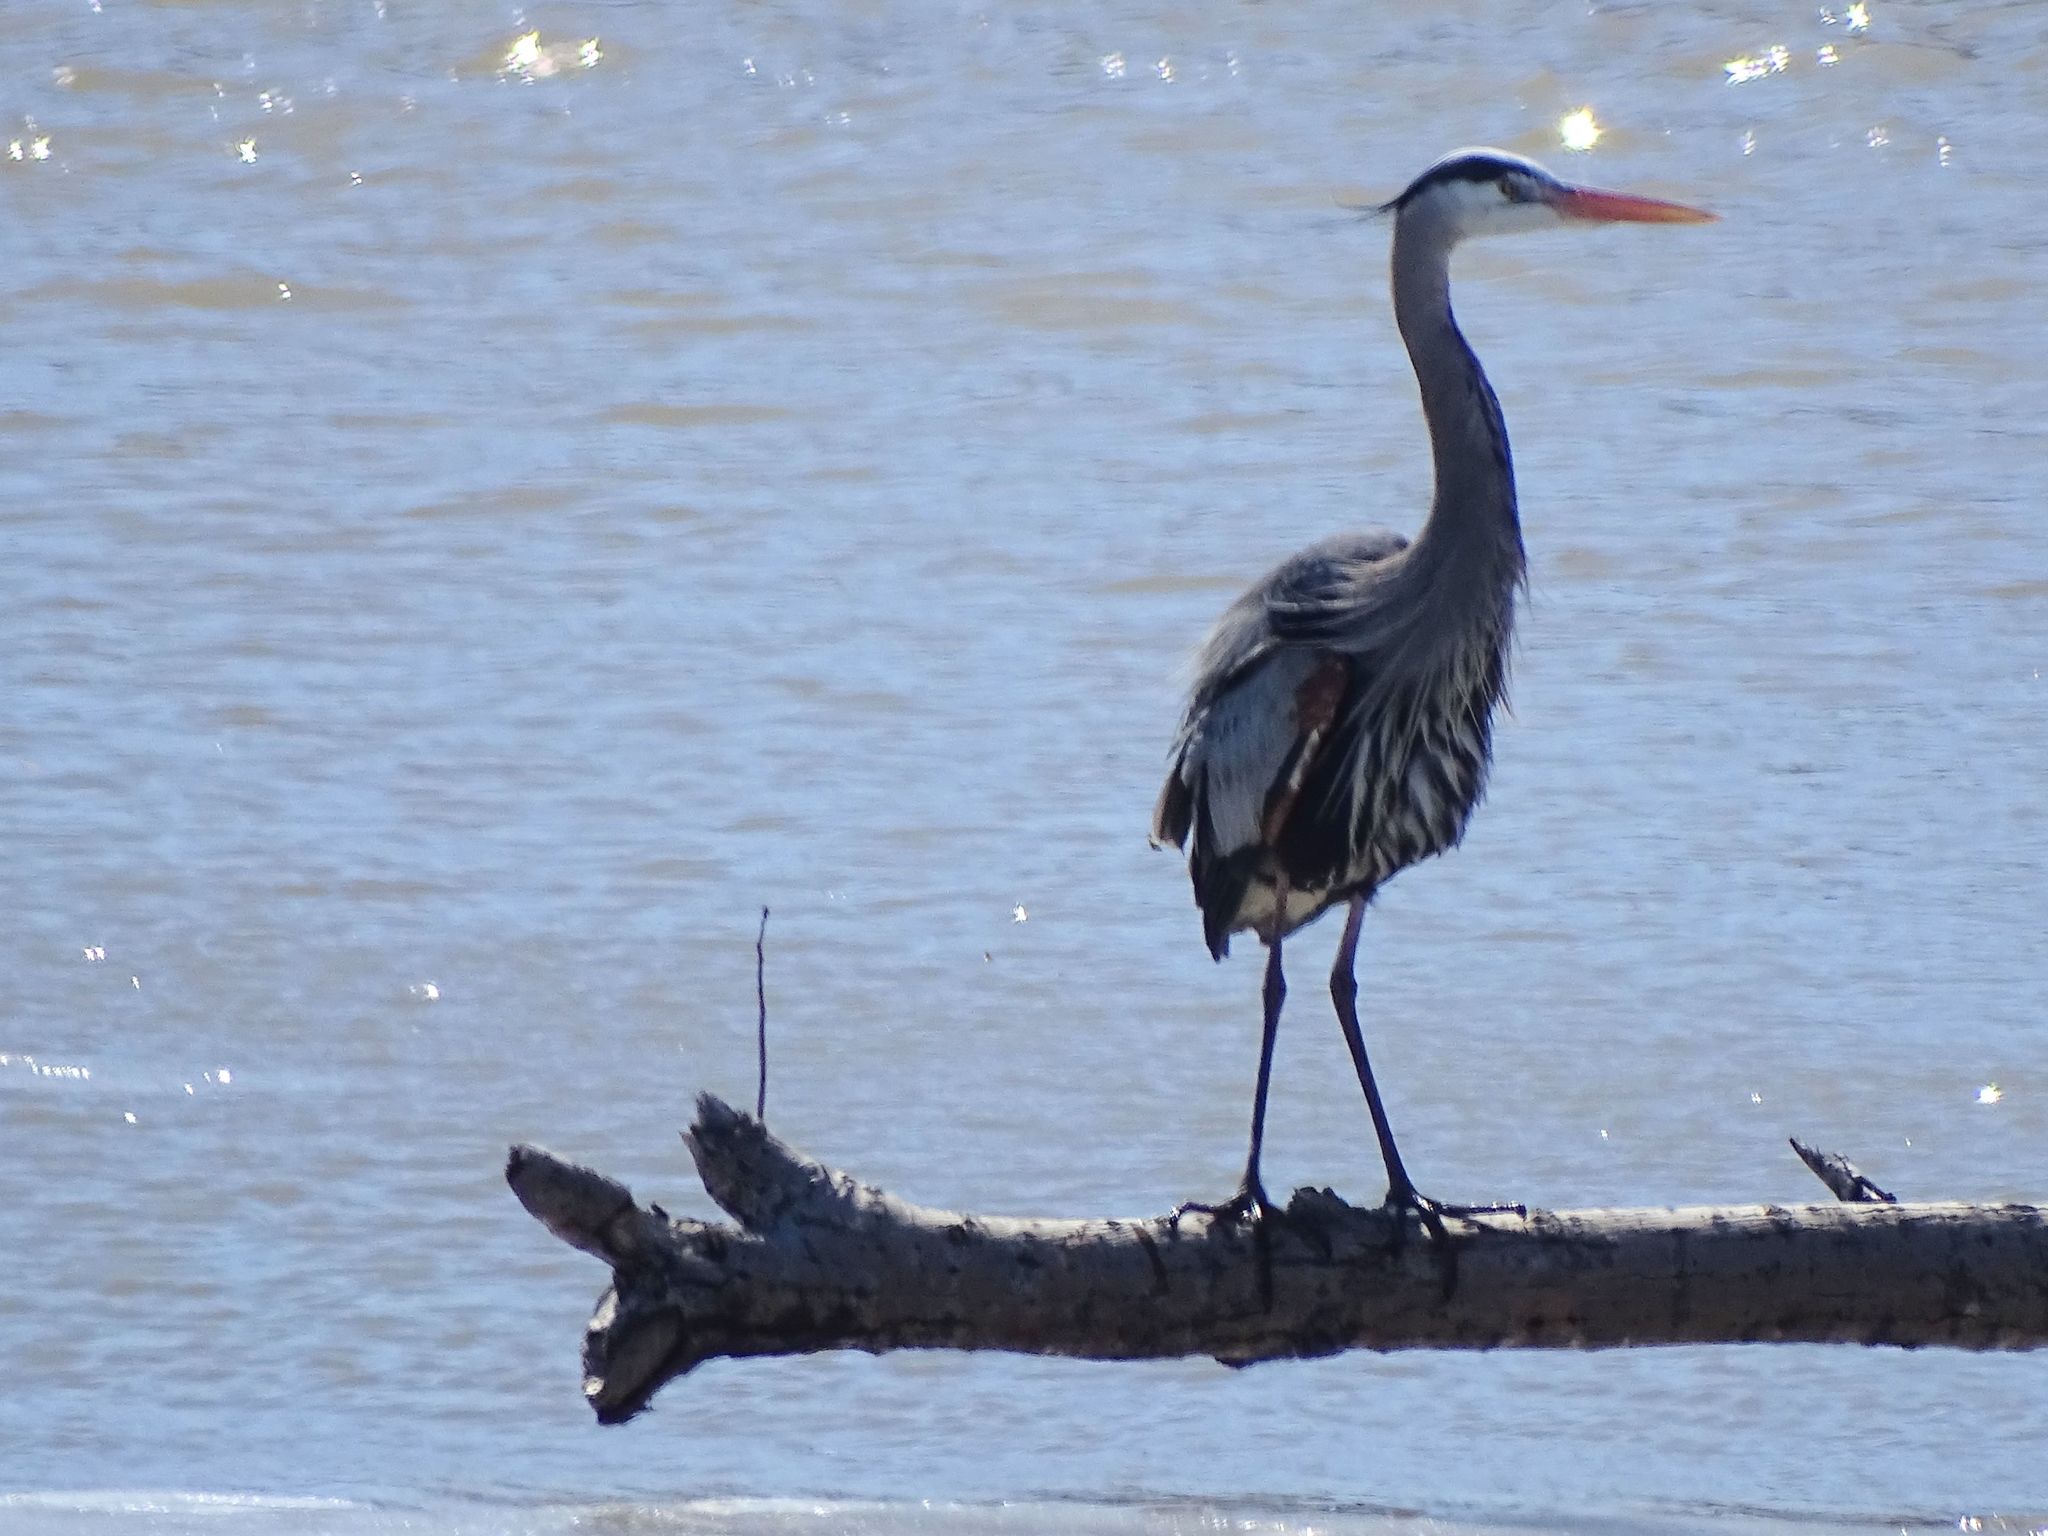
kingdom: Animalia
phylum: Chordata
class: Aves
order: Pelecaniformes
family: Ardeidae
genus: Ardea
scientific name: Ardea herodias
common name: Great blue heron
